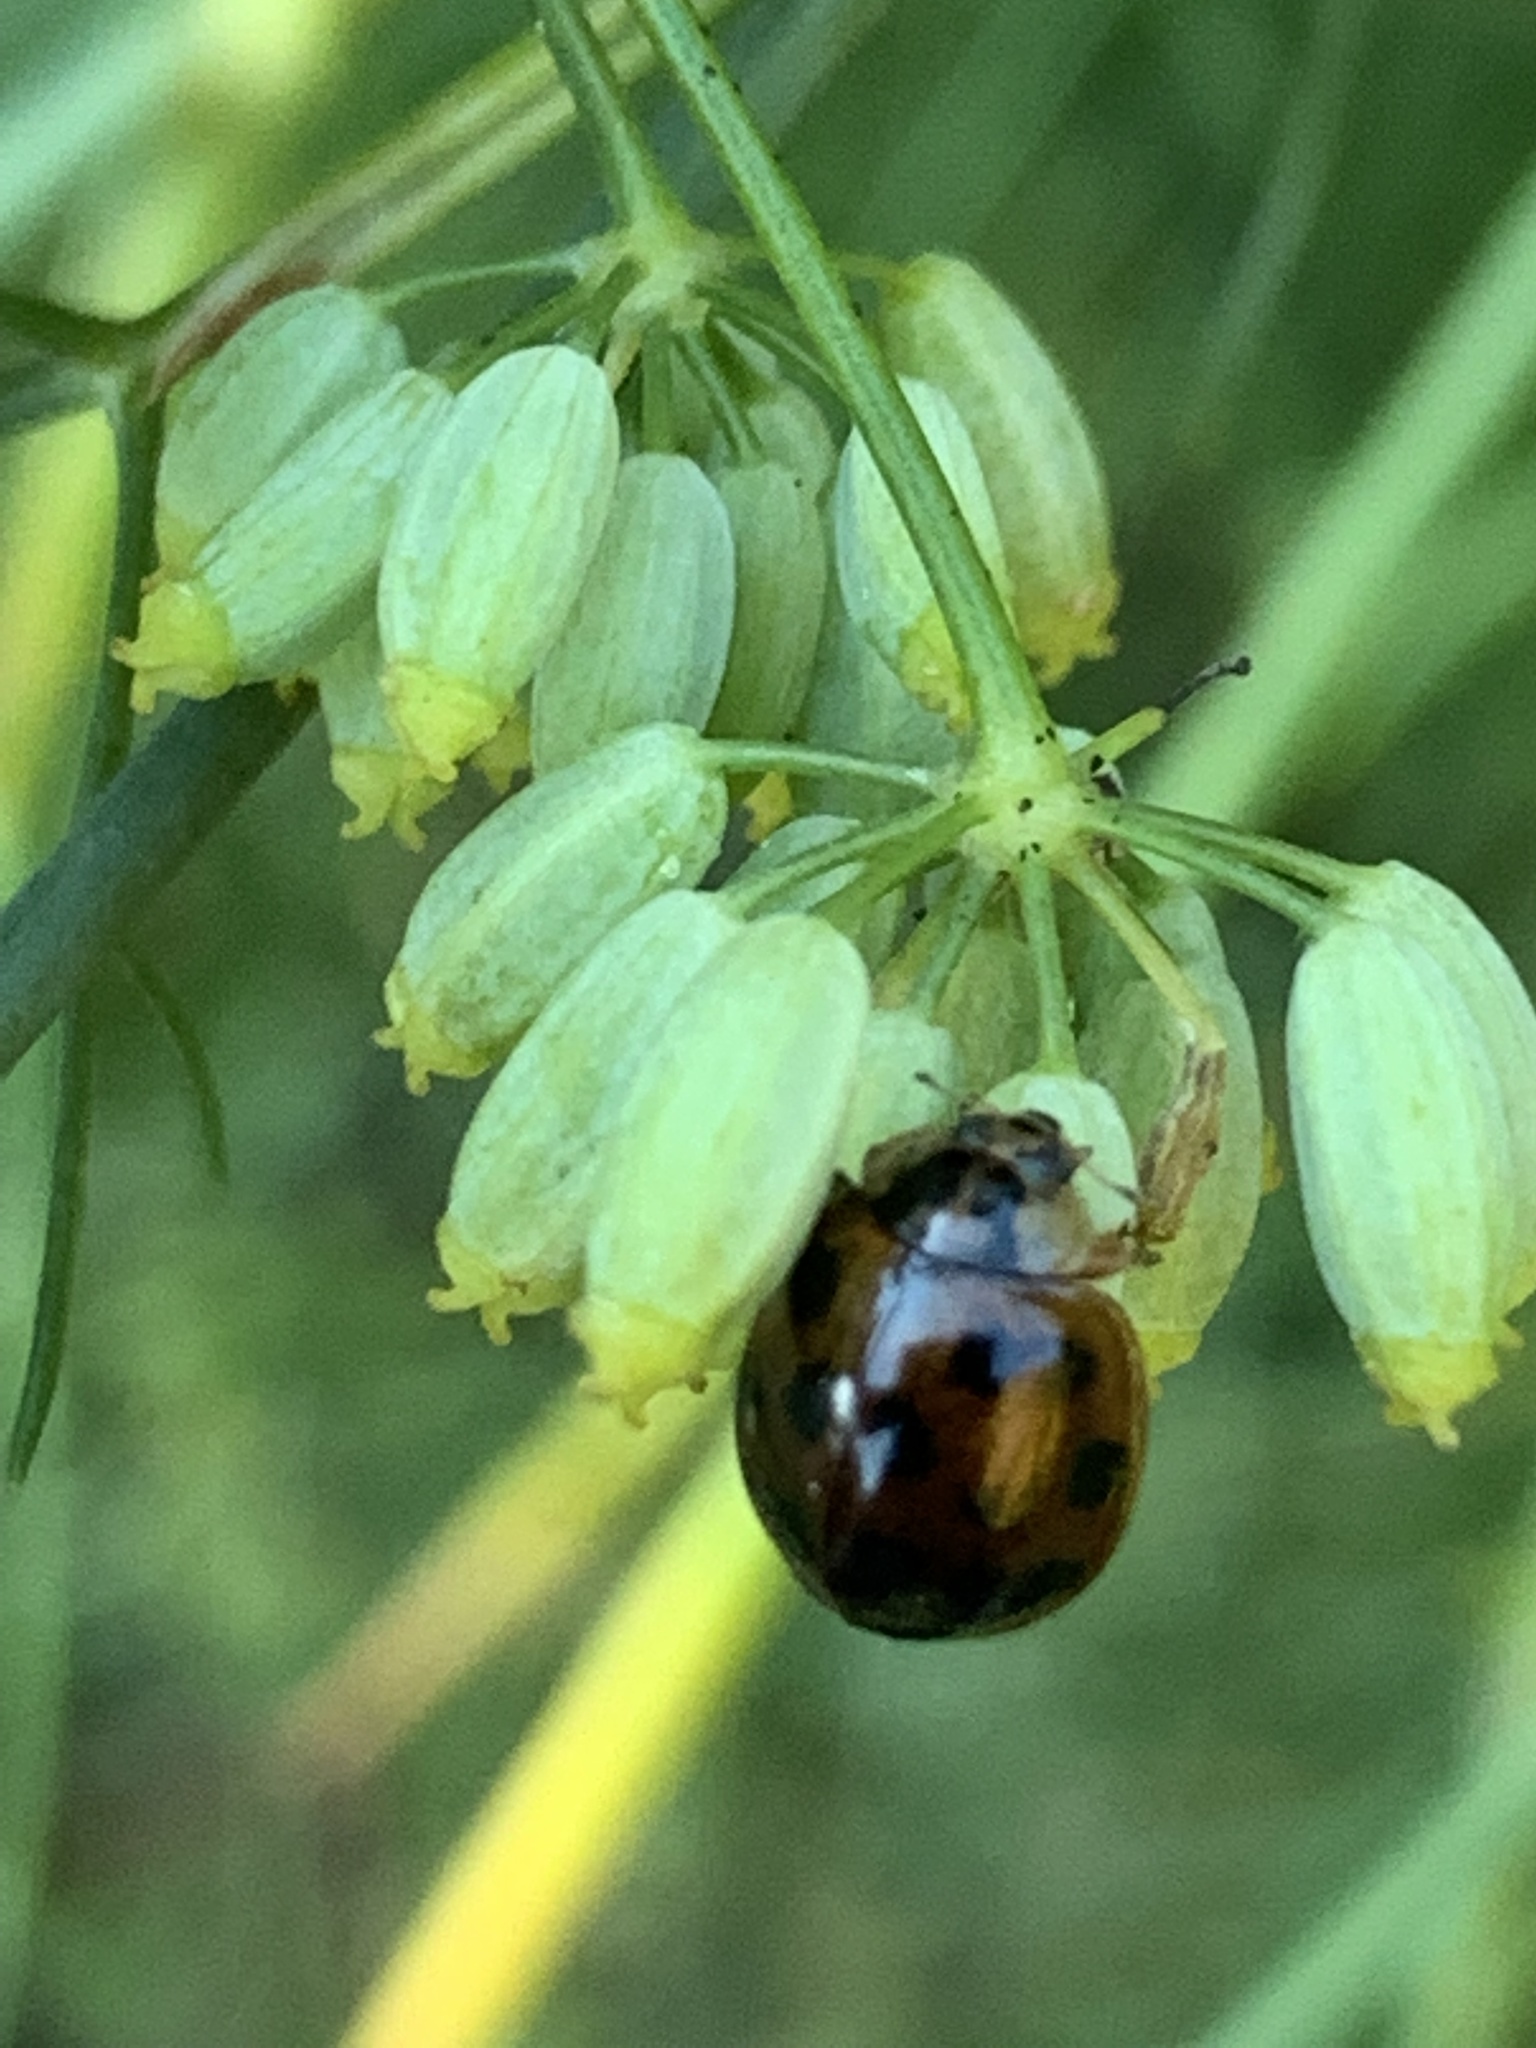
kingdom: Animalia
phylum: Arthropoda
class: Insecta
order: Coleoptera
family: Coccinellidae
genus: Harmonia
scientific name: Harmonia axyridis
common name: Harlequin ladybird
